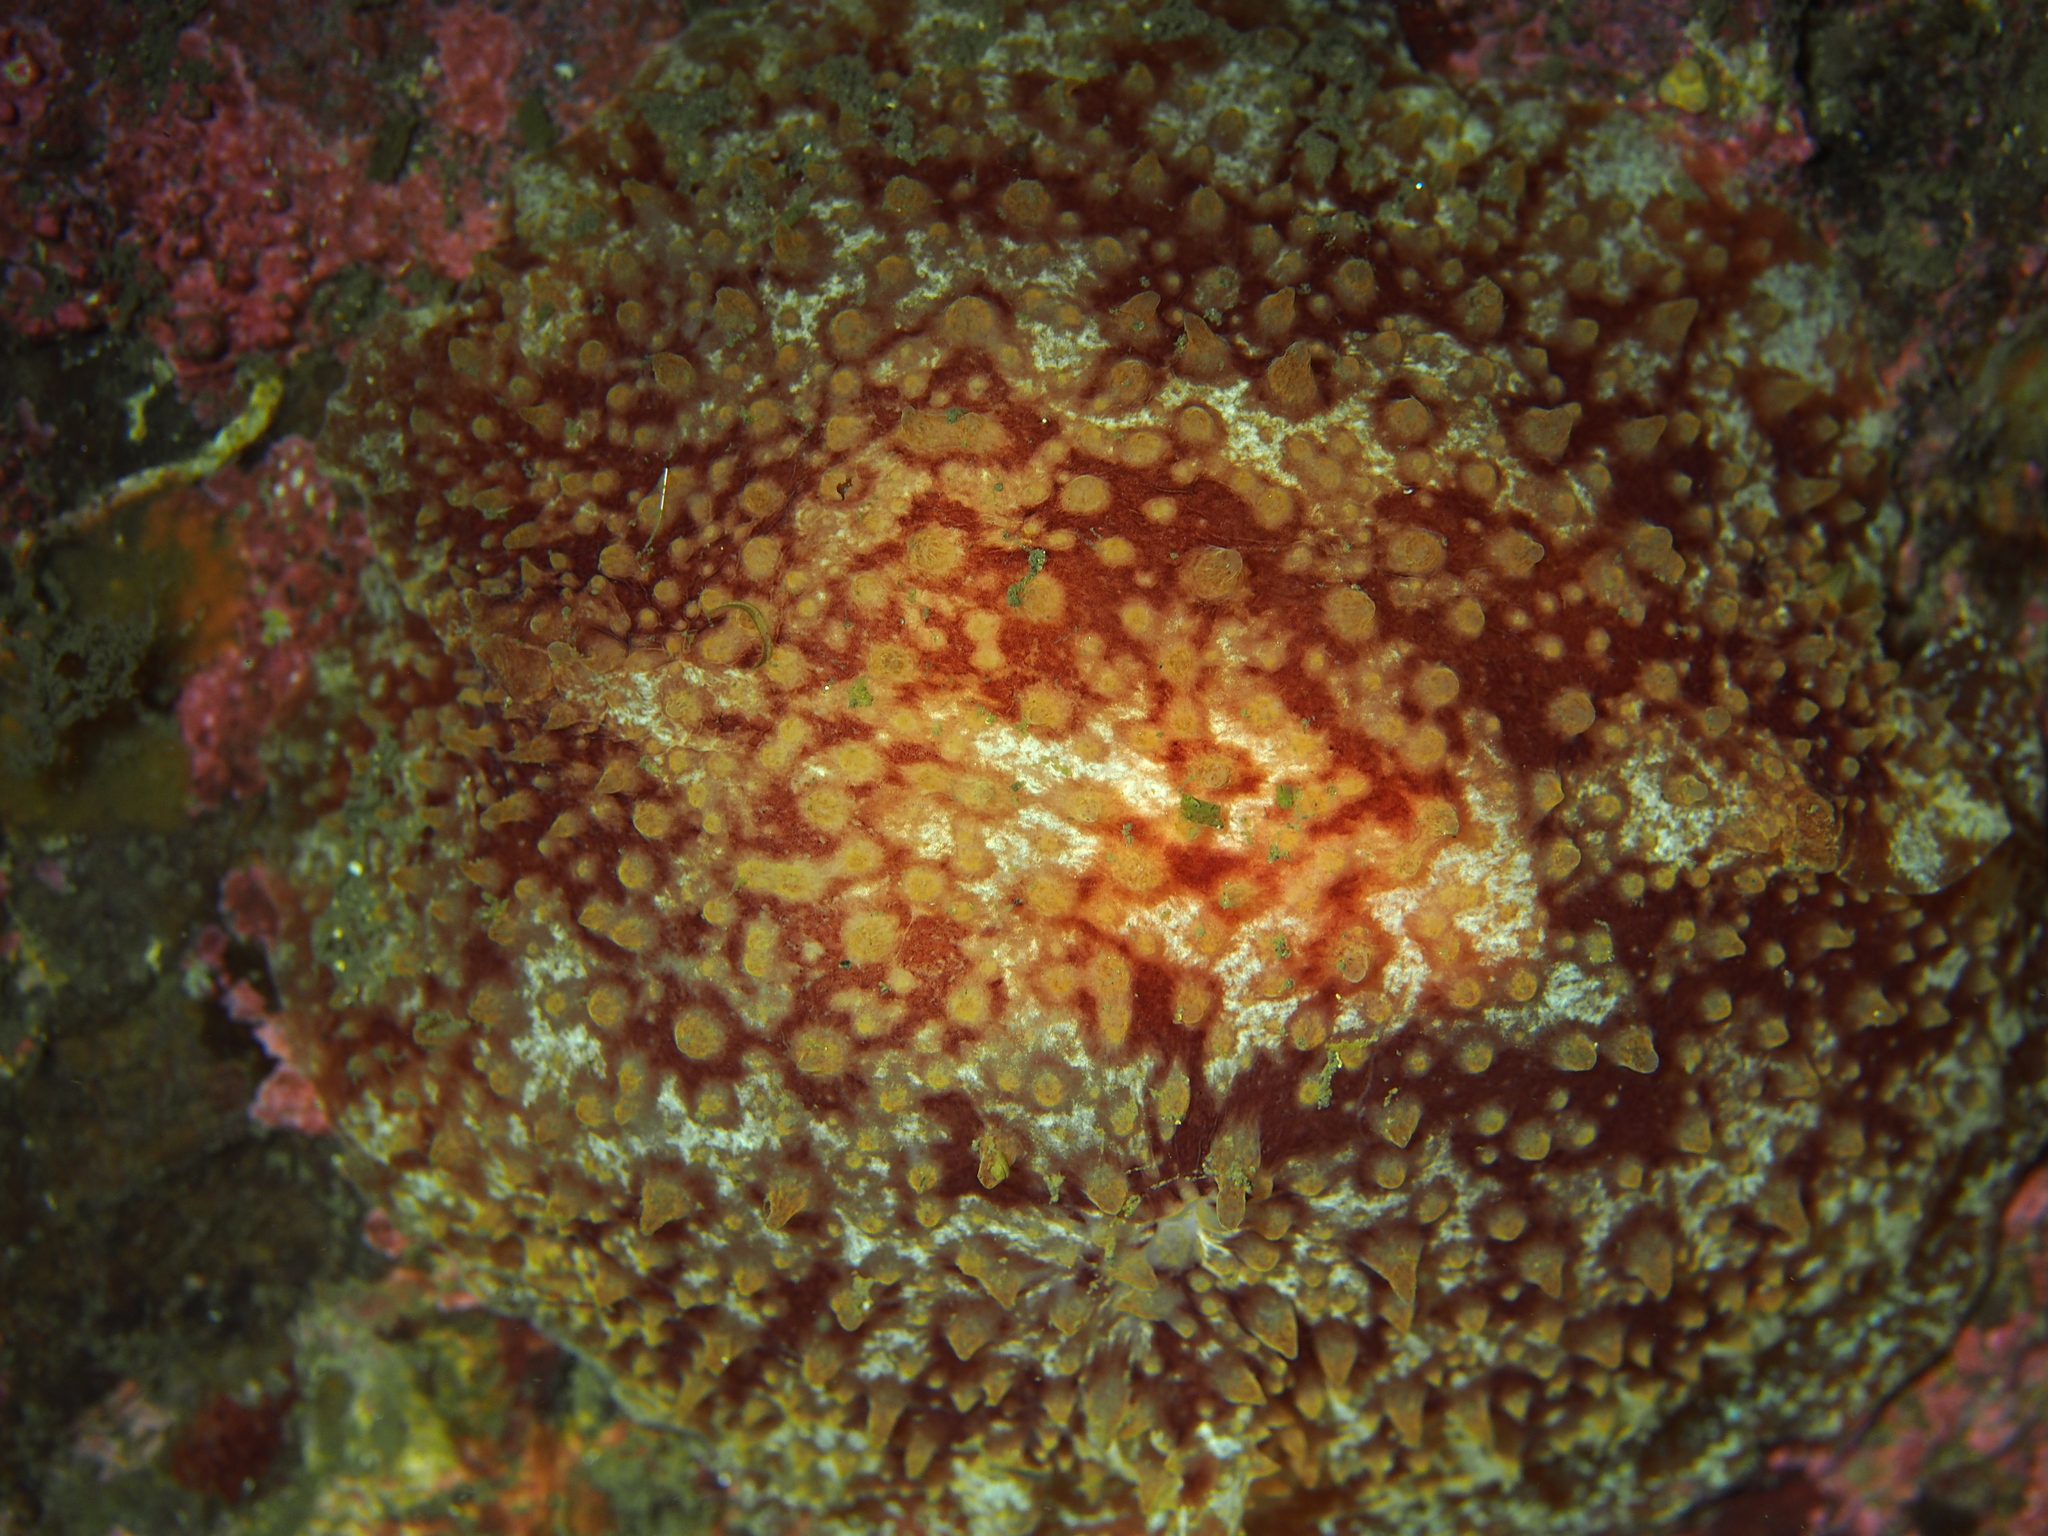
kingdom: Animalia
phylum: Mollusca
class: Gastropoda
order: Pleurobranchida
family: Pleurobranchidae
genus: Pleurobranchus
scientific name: Pleurobranchus membranaceus
